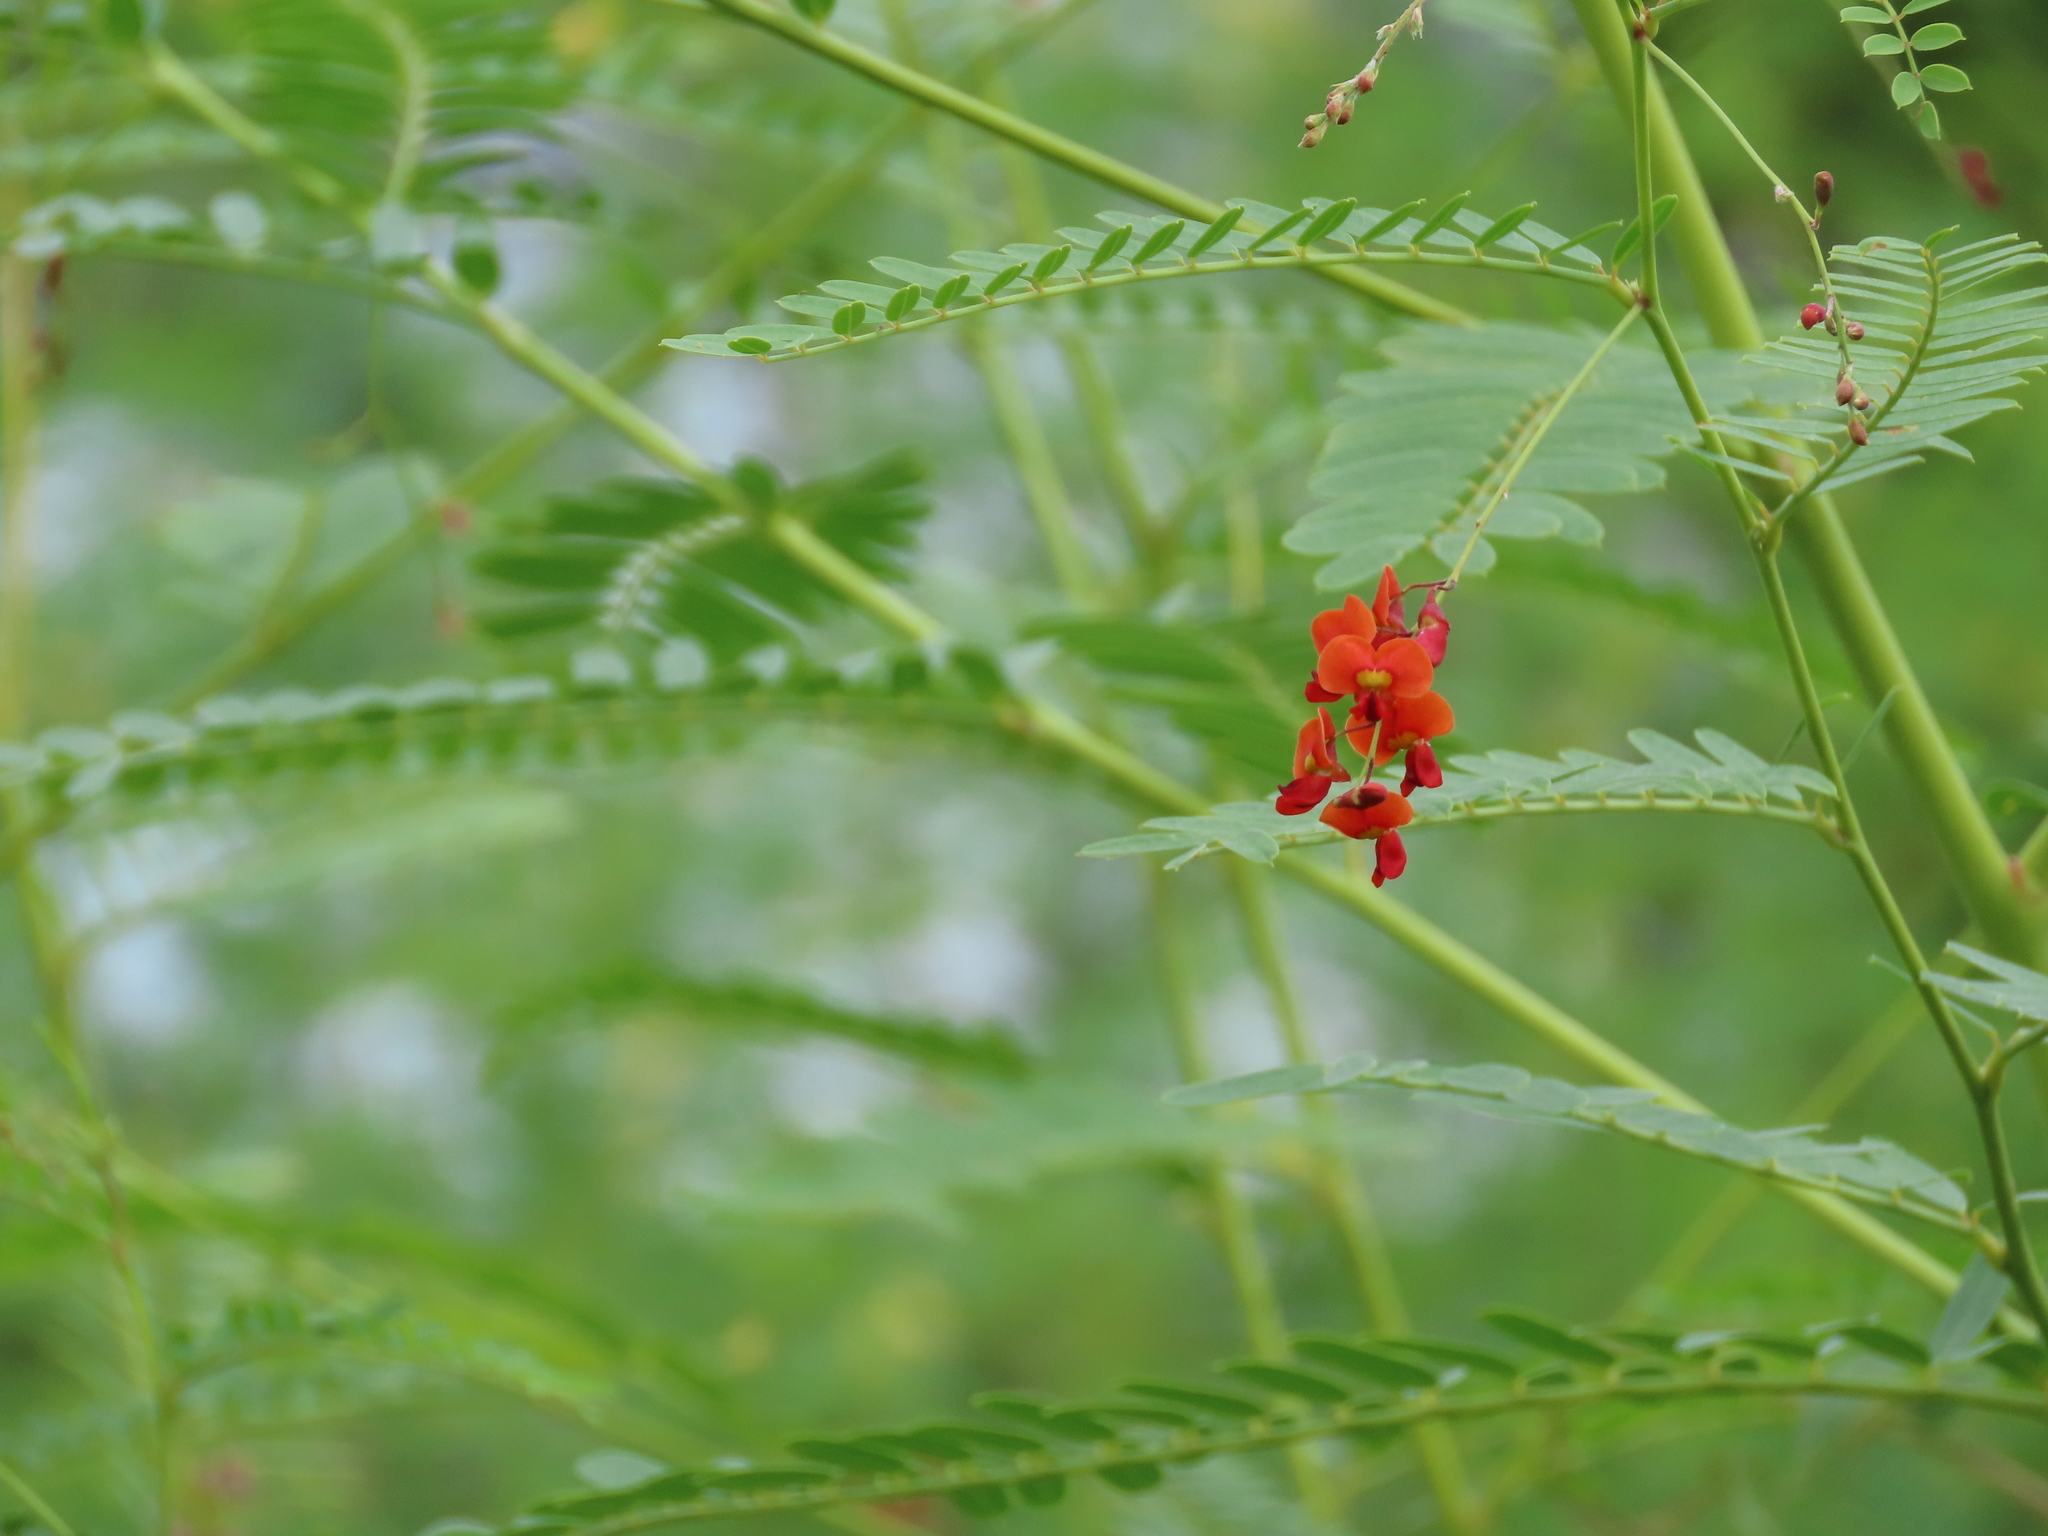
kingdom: Plantae
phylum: Tracheophyta
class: Magnoliopsida
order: Fabales
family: Fabaceae
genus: Sesbania
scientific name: Sesbania vesicaria
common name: Bagpod
